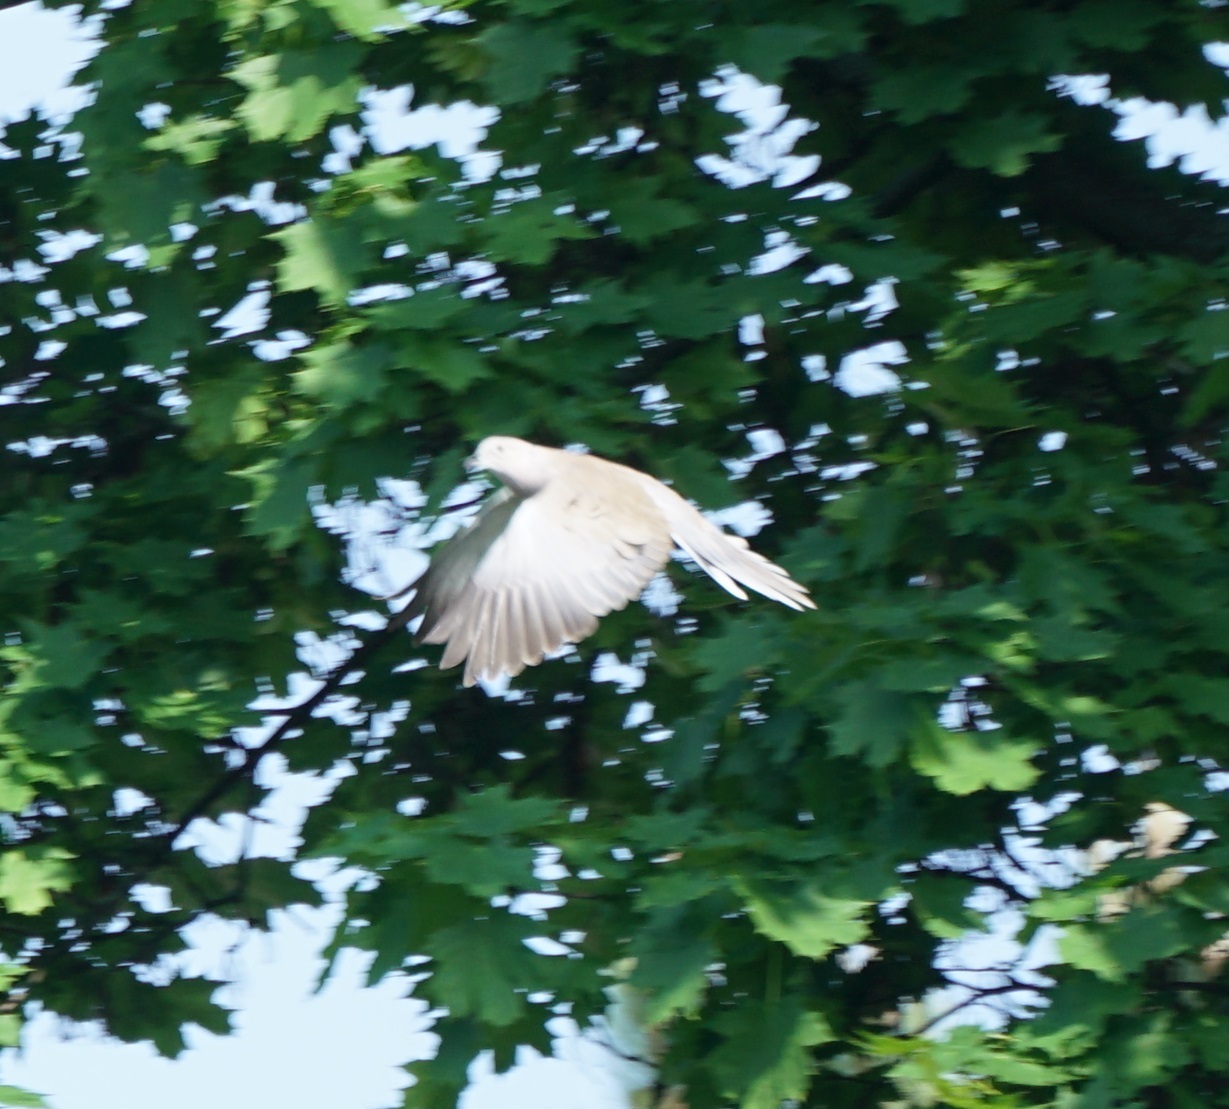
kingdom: Animalia
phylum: Chordata
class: Aves
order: Columbiformes
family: Columbidae
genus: Streptopelia
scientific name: Streptopelia decaocto
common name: Eurasian collared dove
